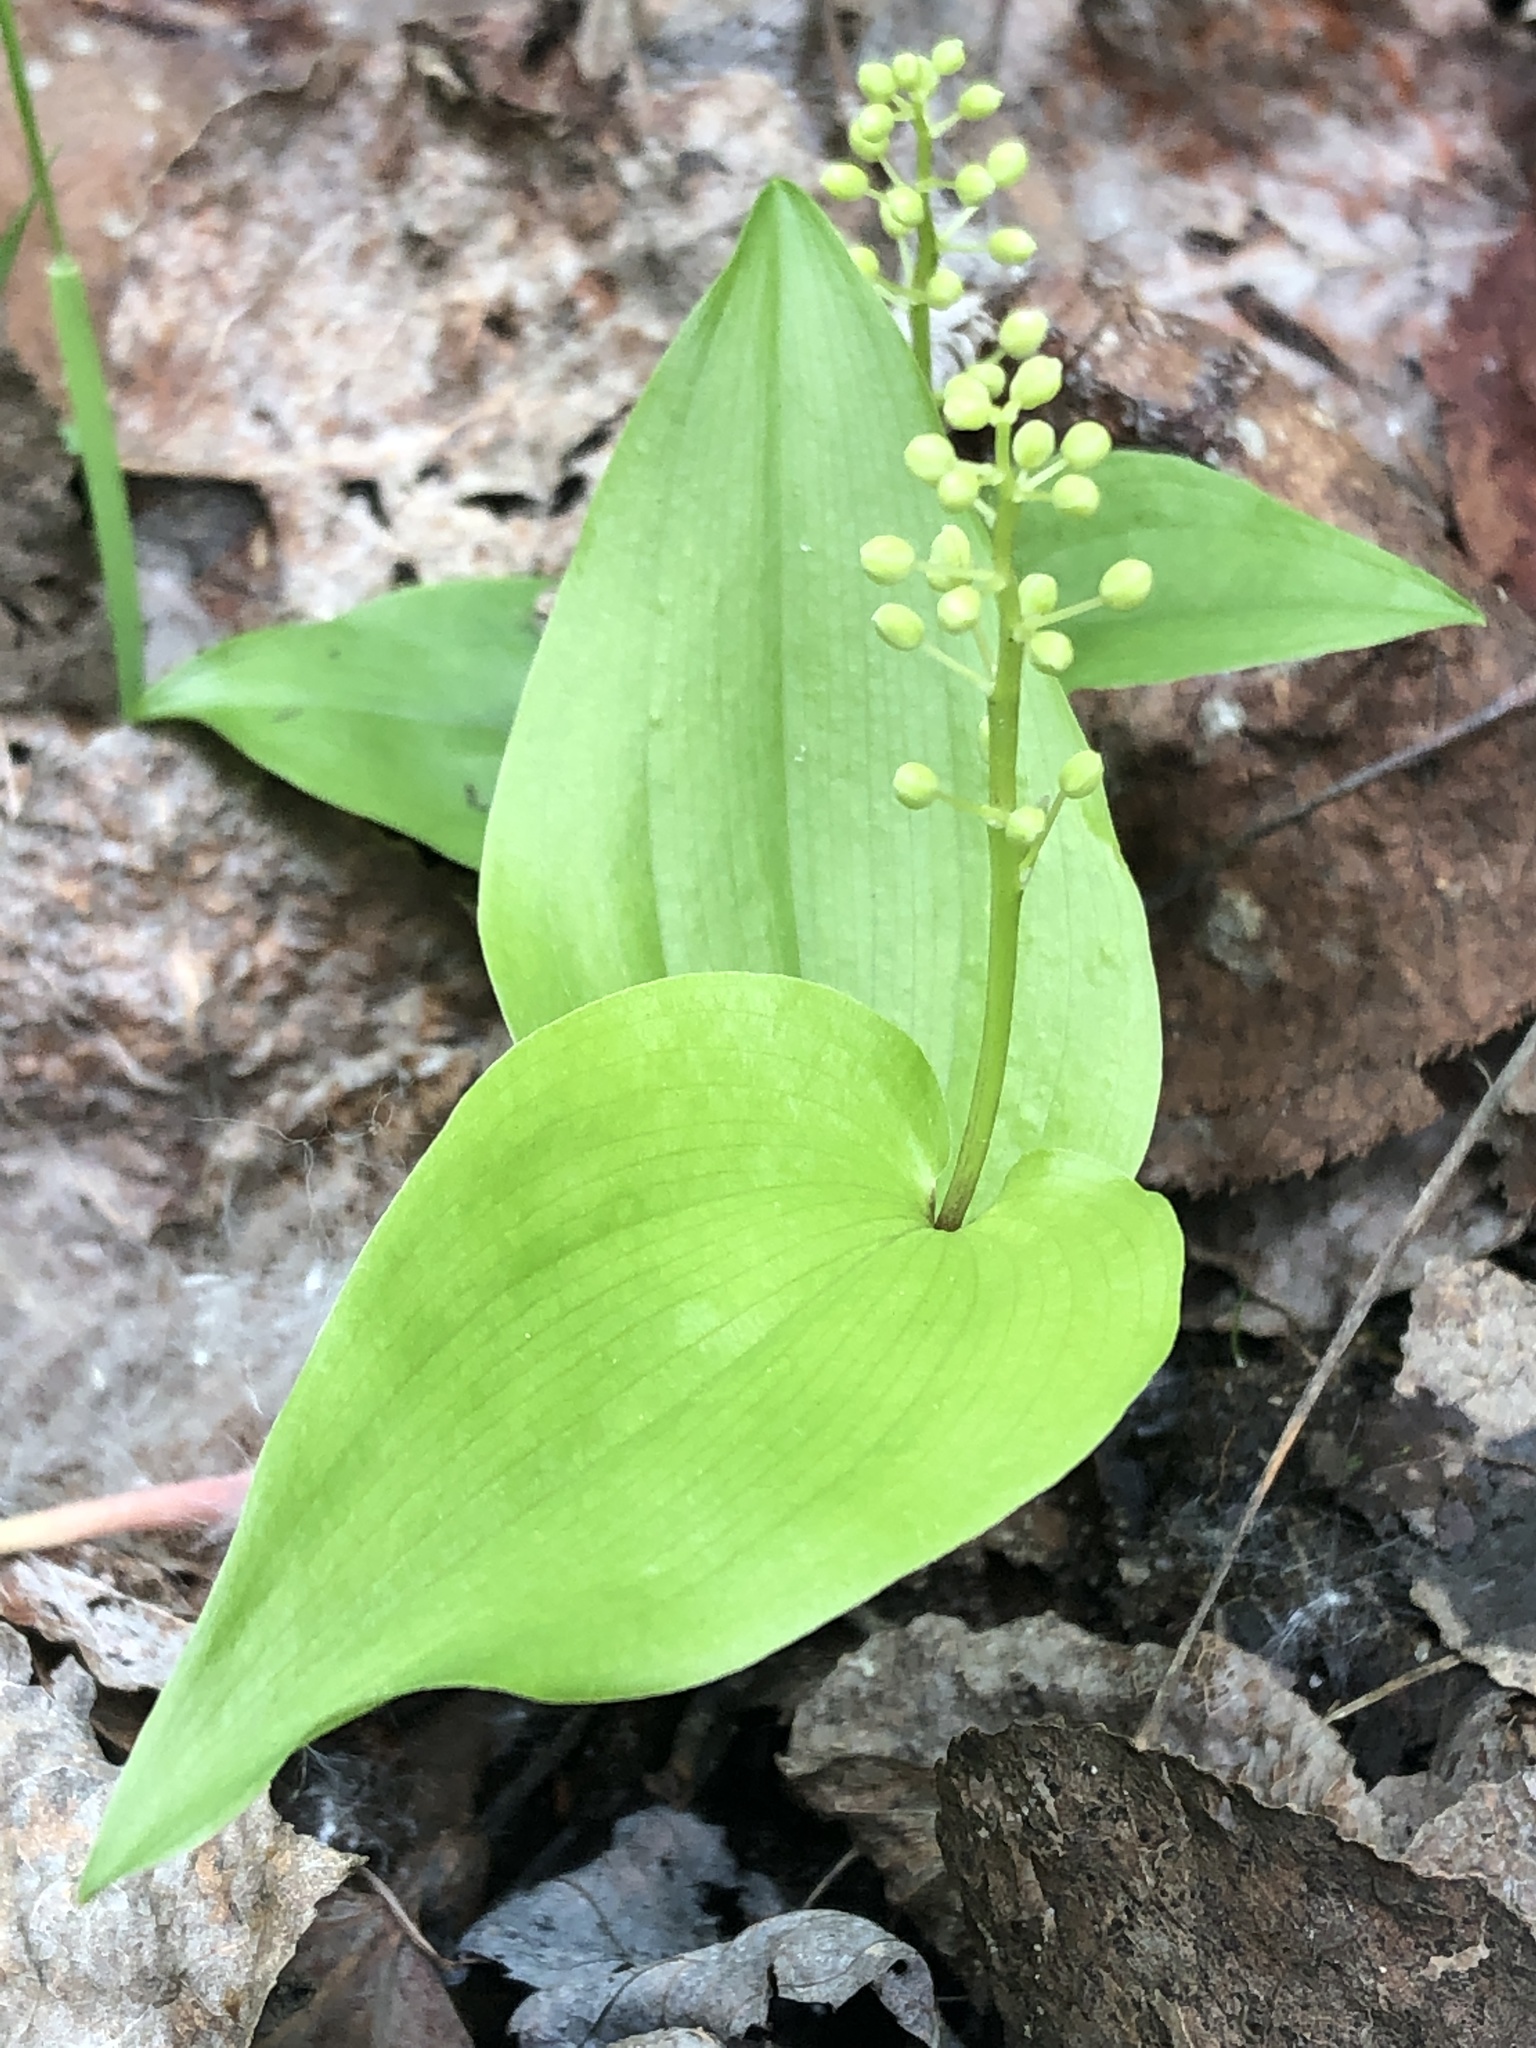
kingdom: Plantae
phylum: Tracheophyta
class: Liliopsida
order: Asparagales
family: Asparagaceae
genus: Maianthemum
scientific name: Maianthemum canadense
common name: False lily-of-the-valley
